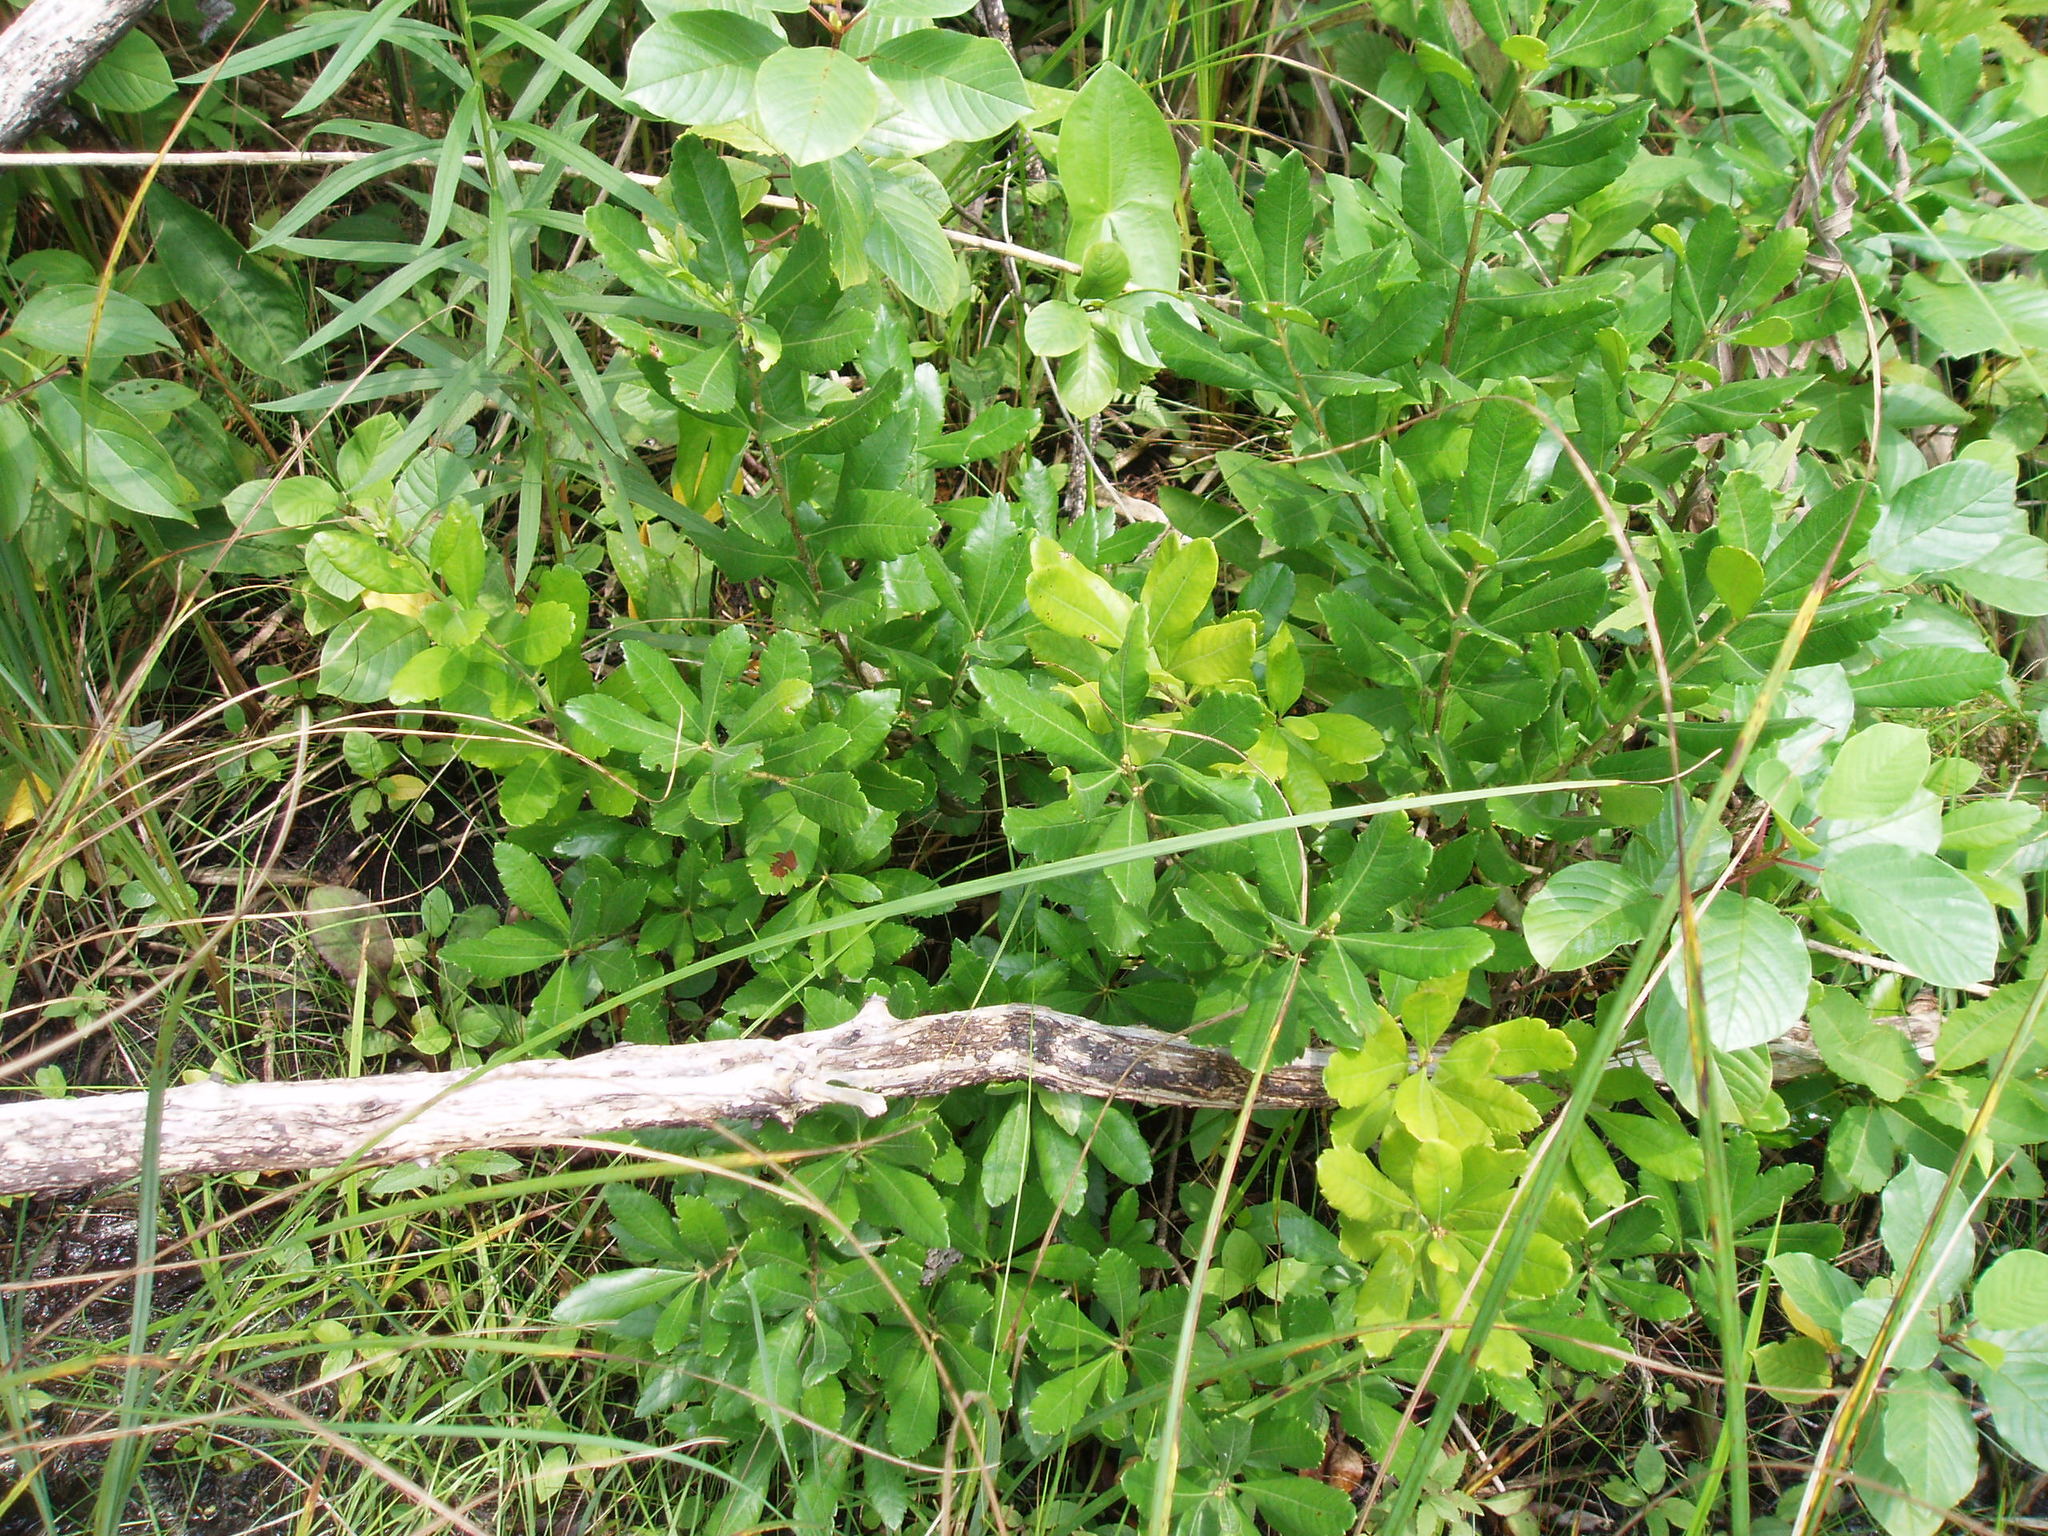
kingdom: Plantae
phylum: Tracheophyta
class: Magnoliopsida
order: Fagales
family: Myricaceae
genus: Morella
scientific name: Morella pensylvanica
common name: Northern bayberry
